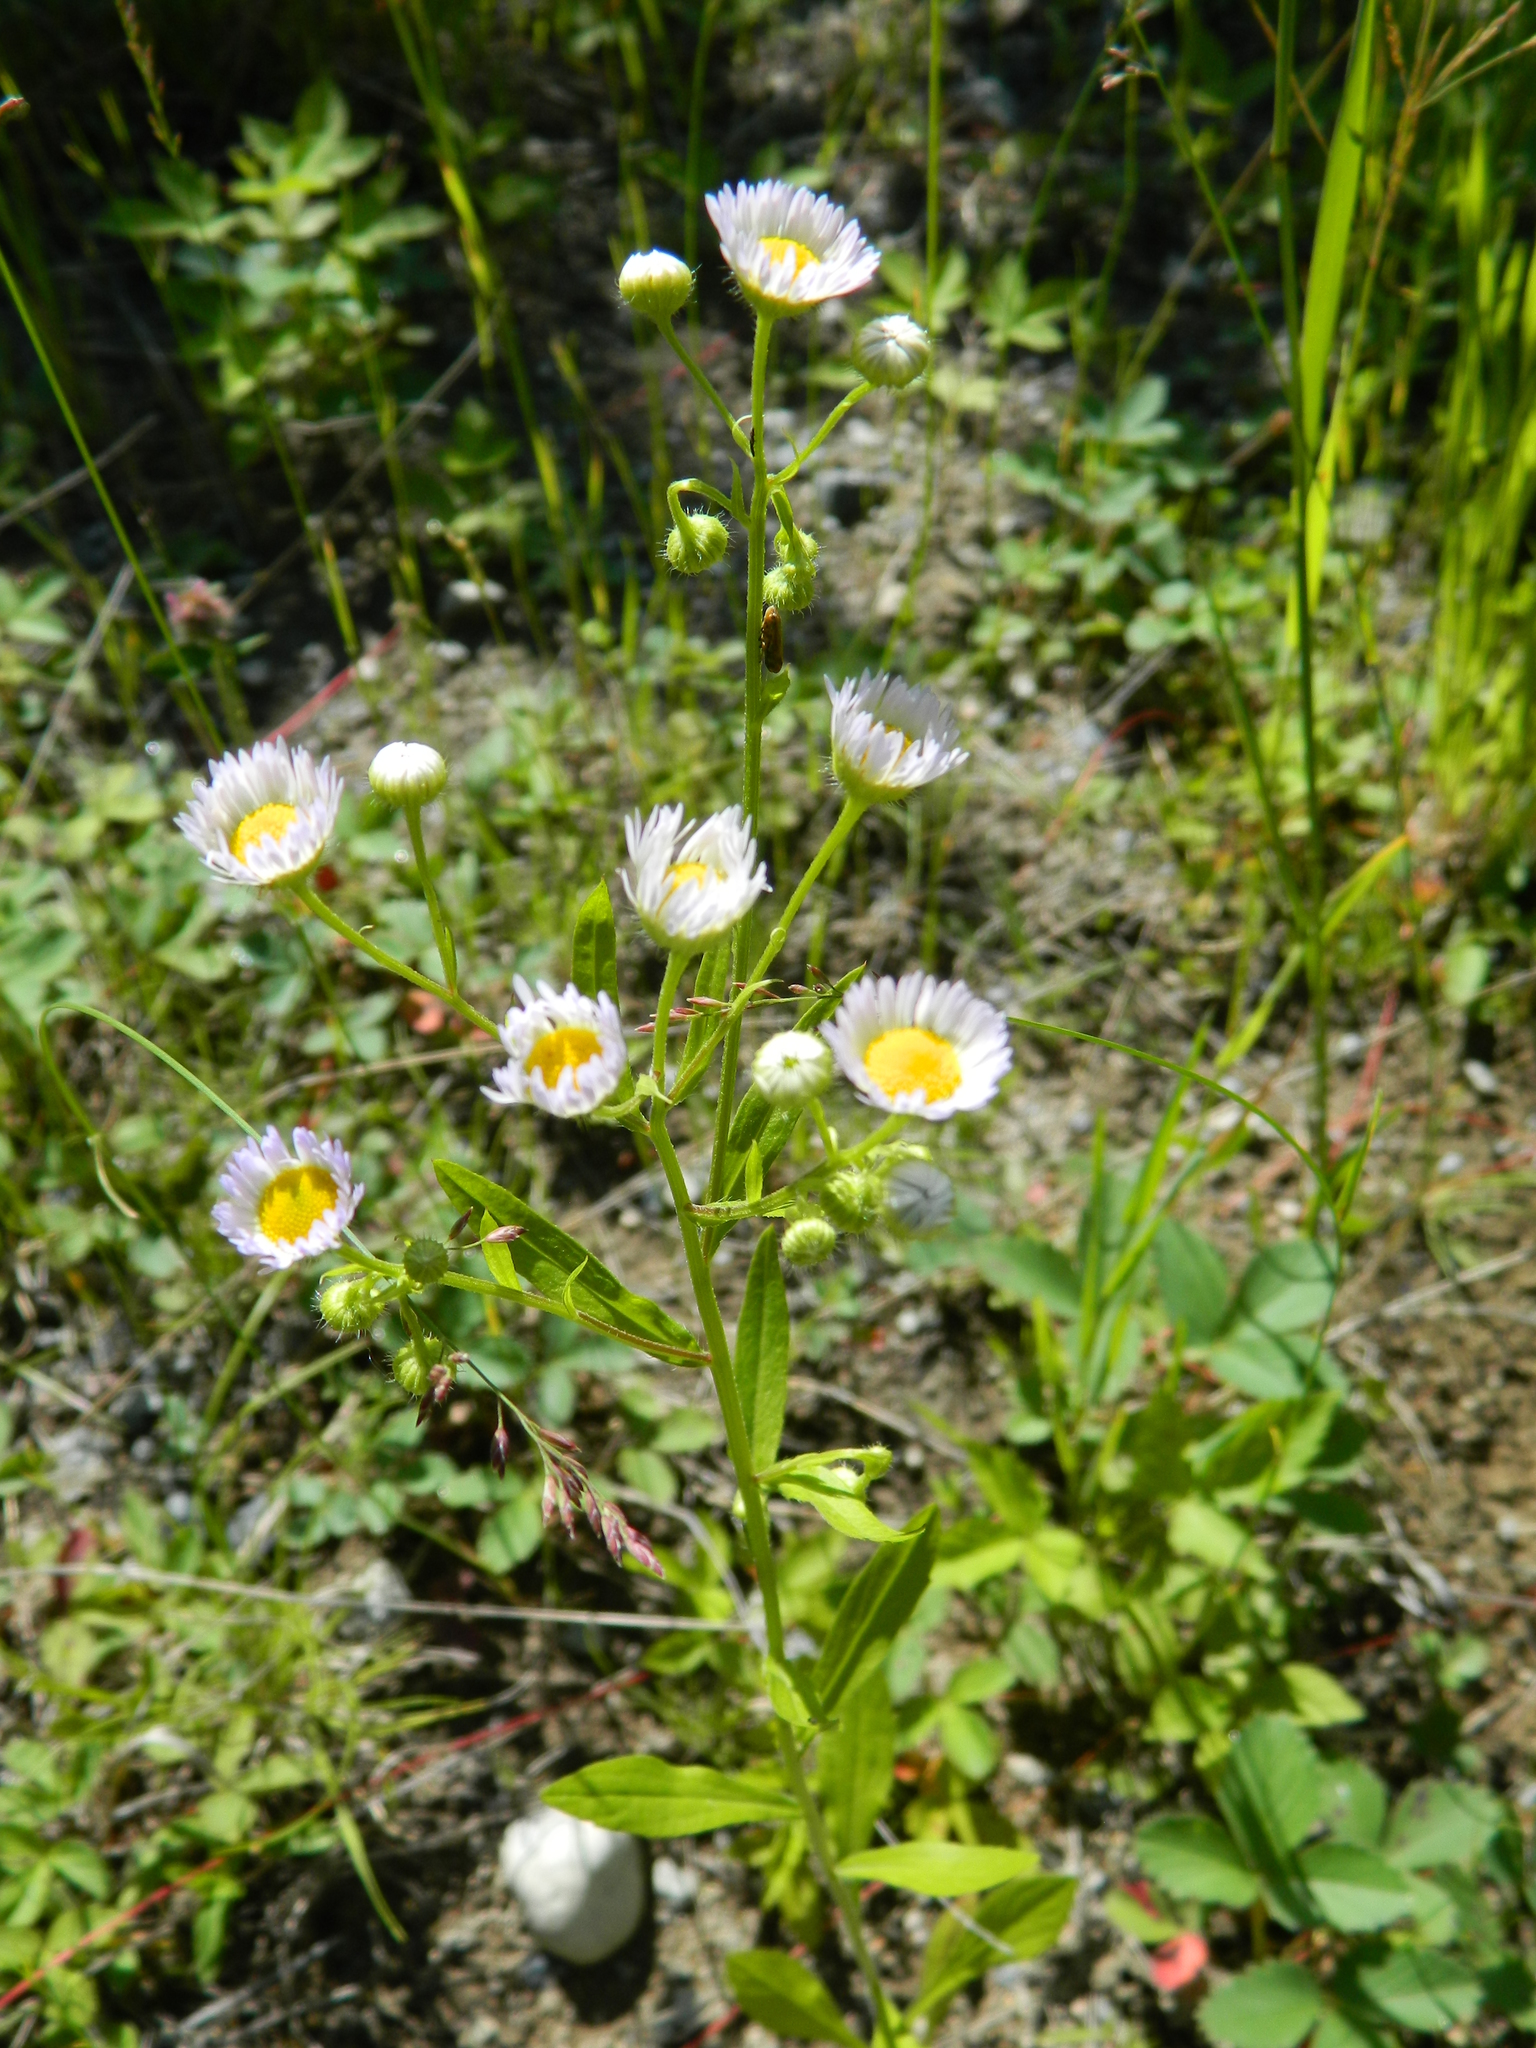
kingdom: Plantae
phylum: Tracheophyta
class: Magnoliopsida
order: Asterales
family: Asteraceae
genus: Erigeron
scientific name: Erigeron annuus
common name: Tall fleabane
